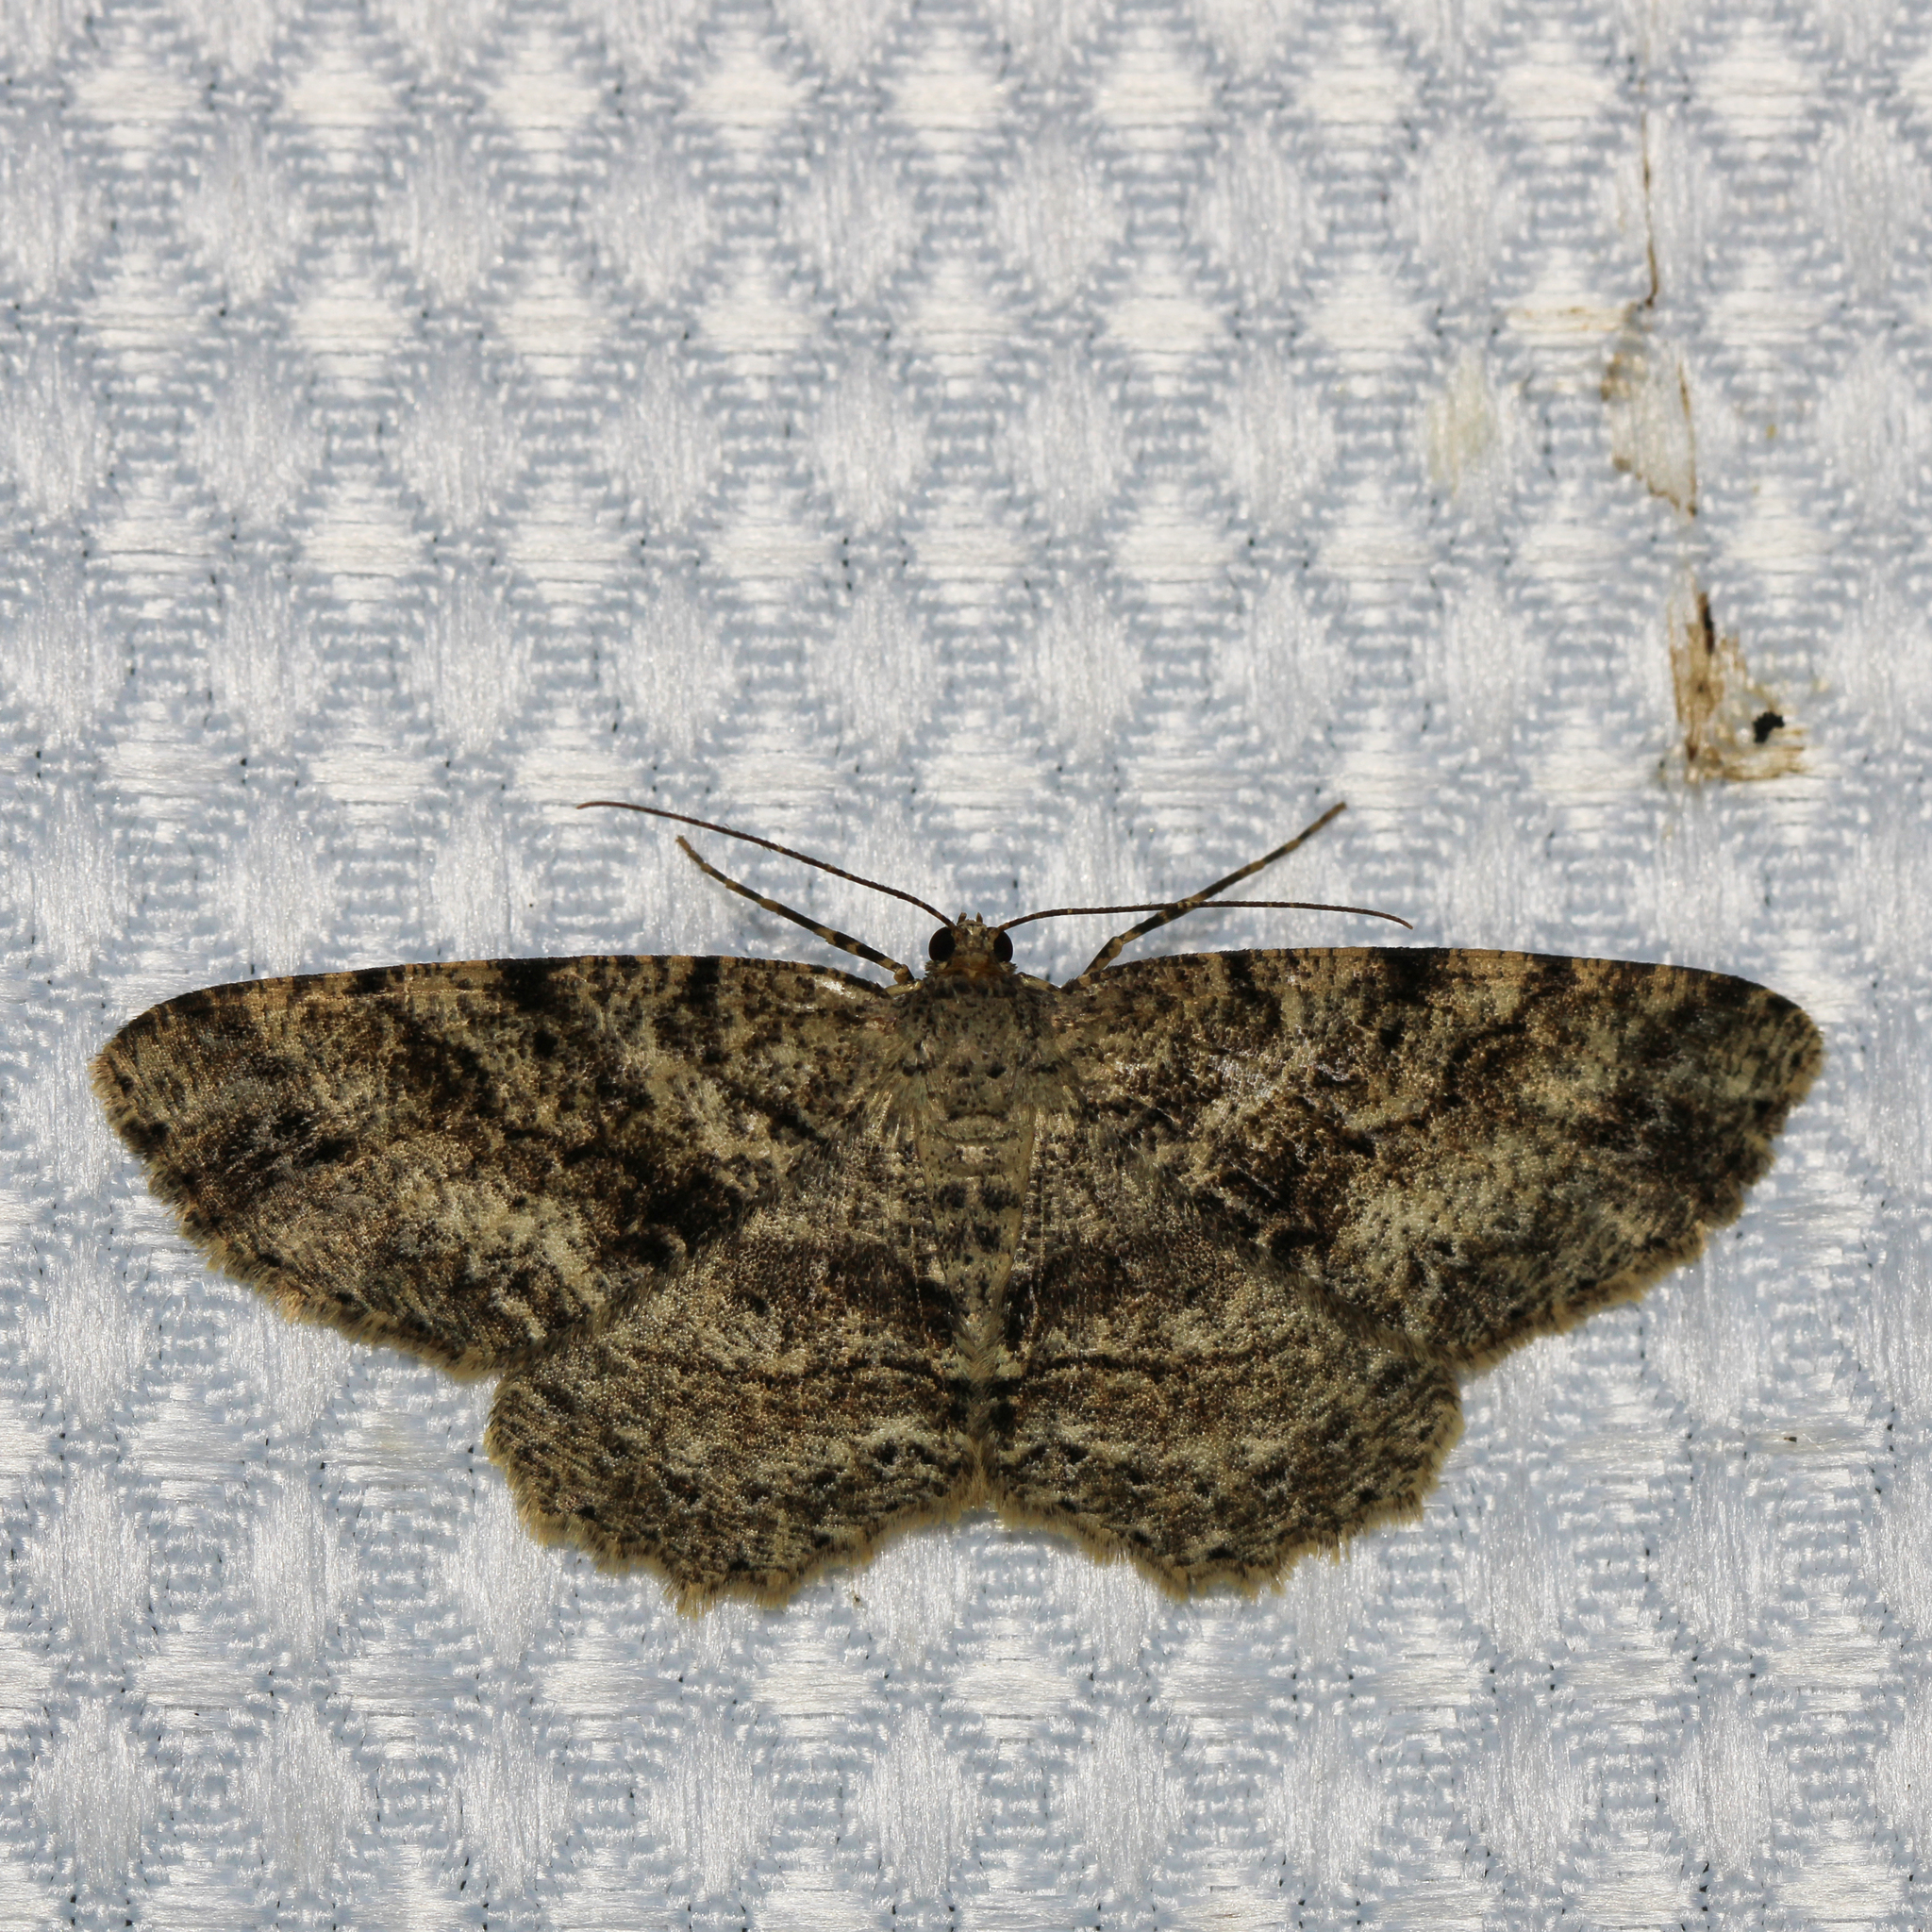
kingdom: Animalia
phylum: Arthropoda
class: Insecta
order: Lepidoptera
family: Geometridae
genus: Melanolophia
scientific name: Melanolophia canadaria
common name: Canadian melanolophia
